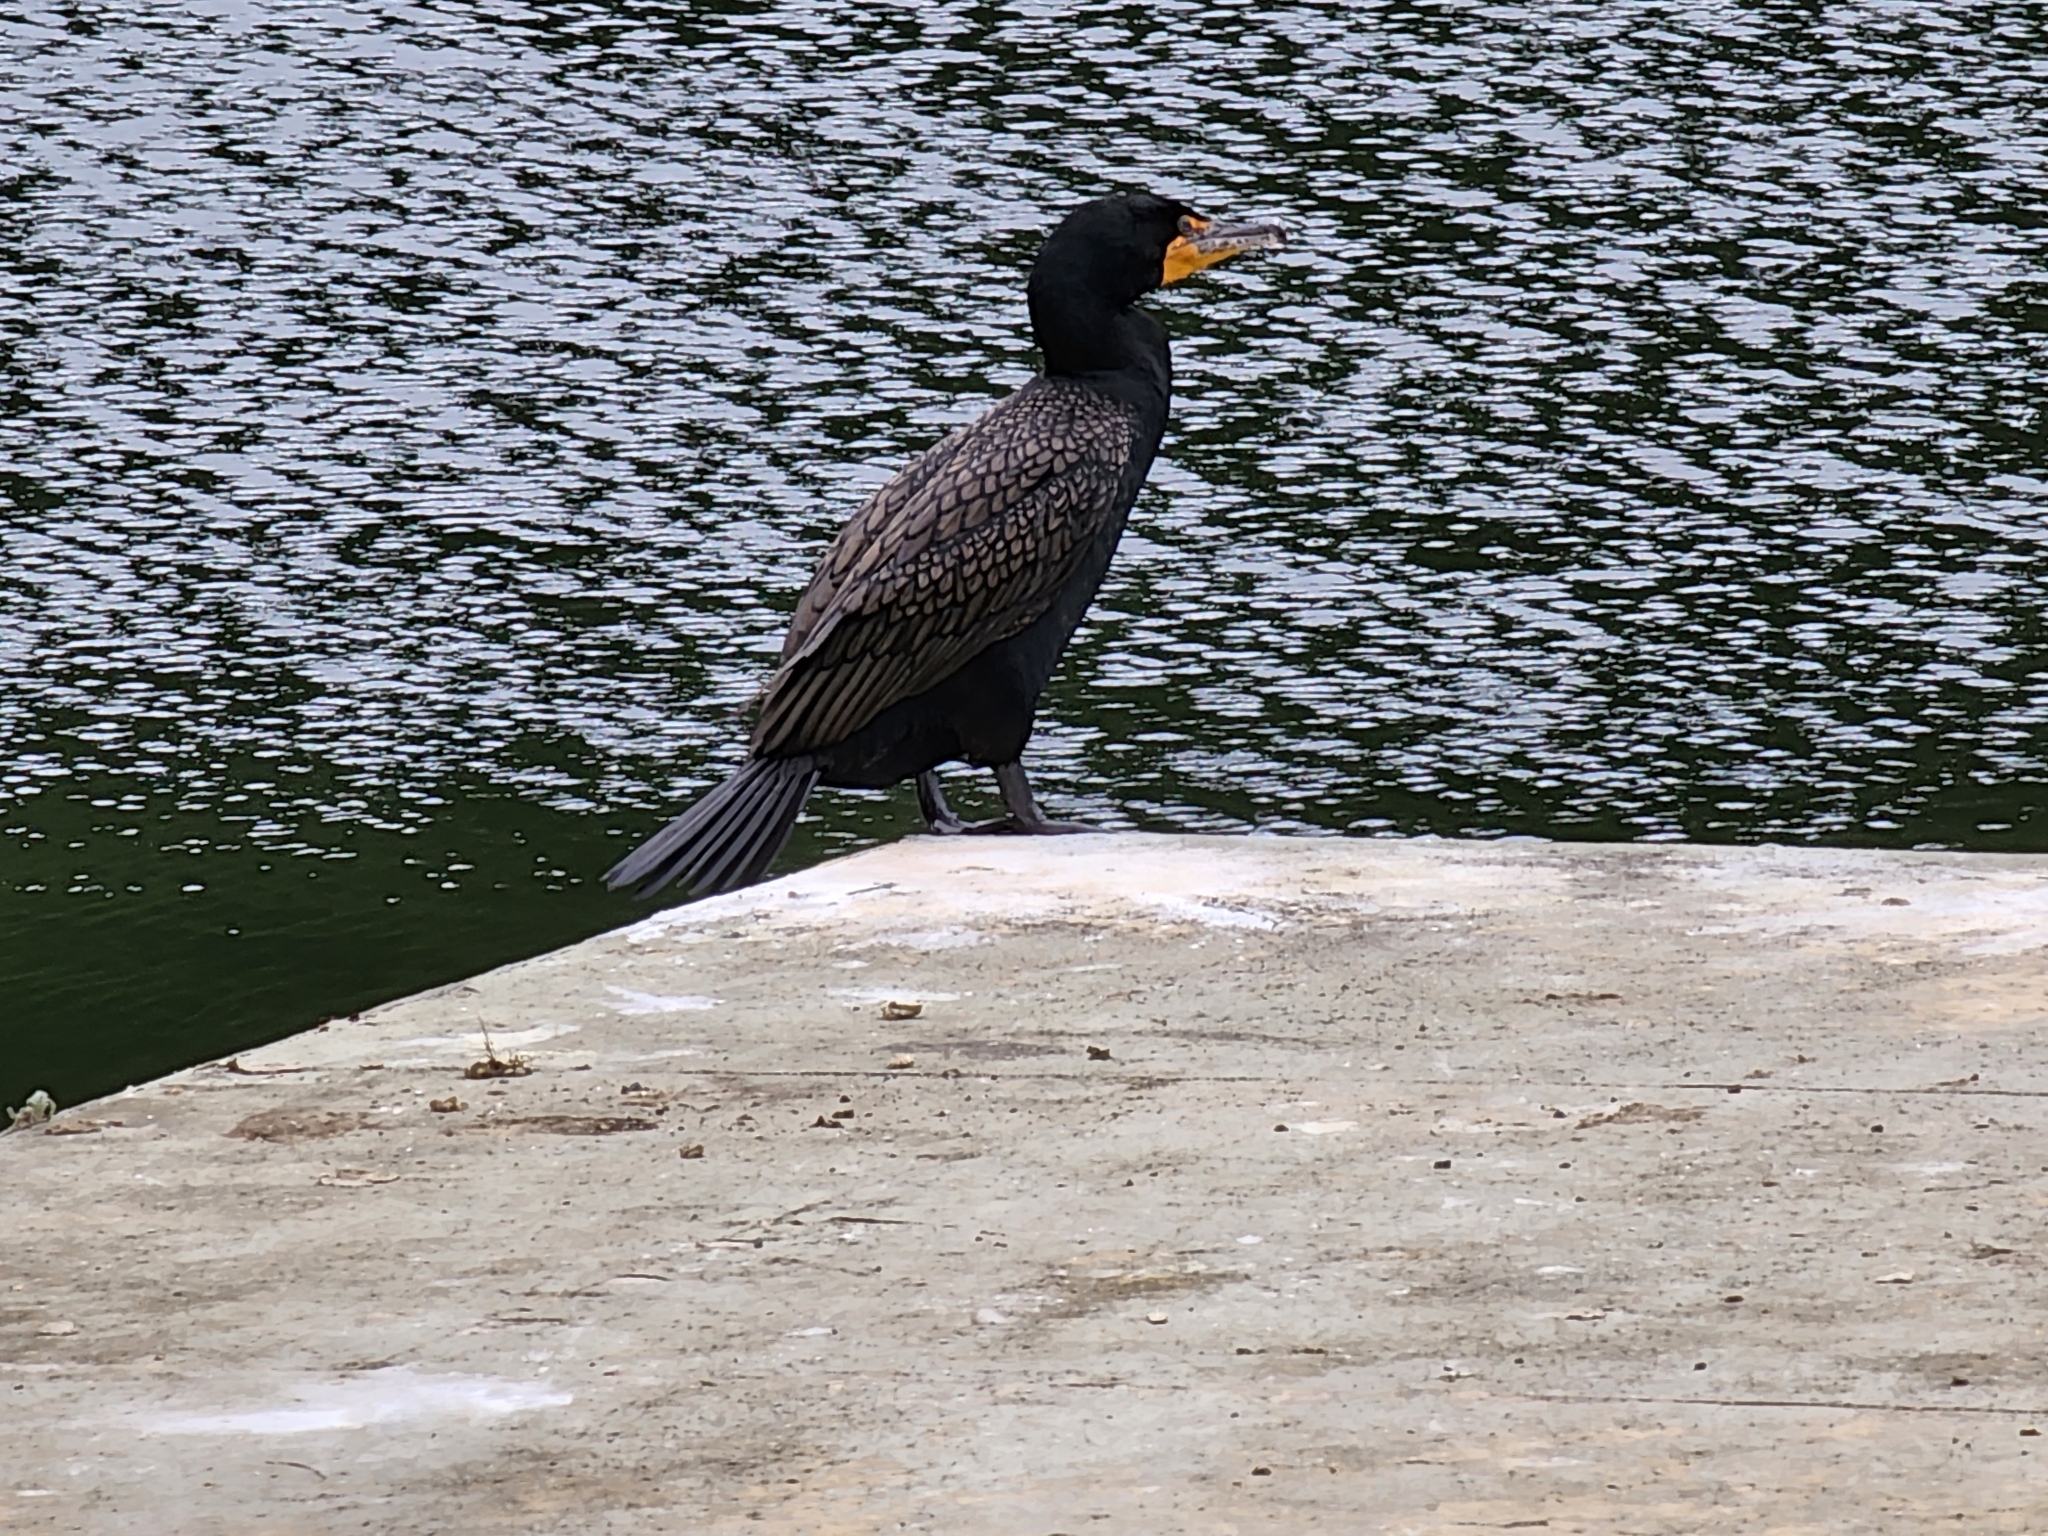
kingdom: Animalia
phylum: Chordata
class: Aves
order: Suliformes
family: Phalacrocoracidae
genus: Phalacrocorax
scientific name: Phalacrocorax auritus
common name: Double-crested cormorant
